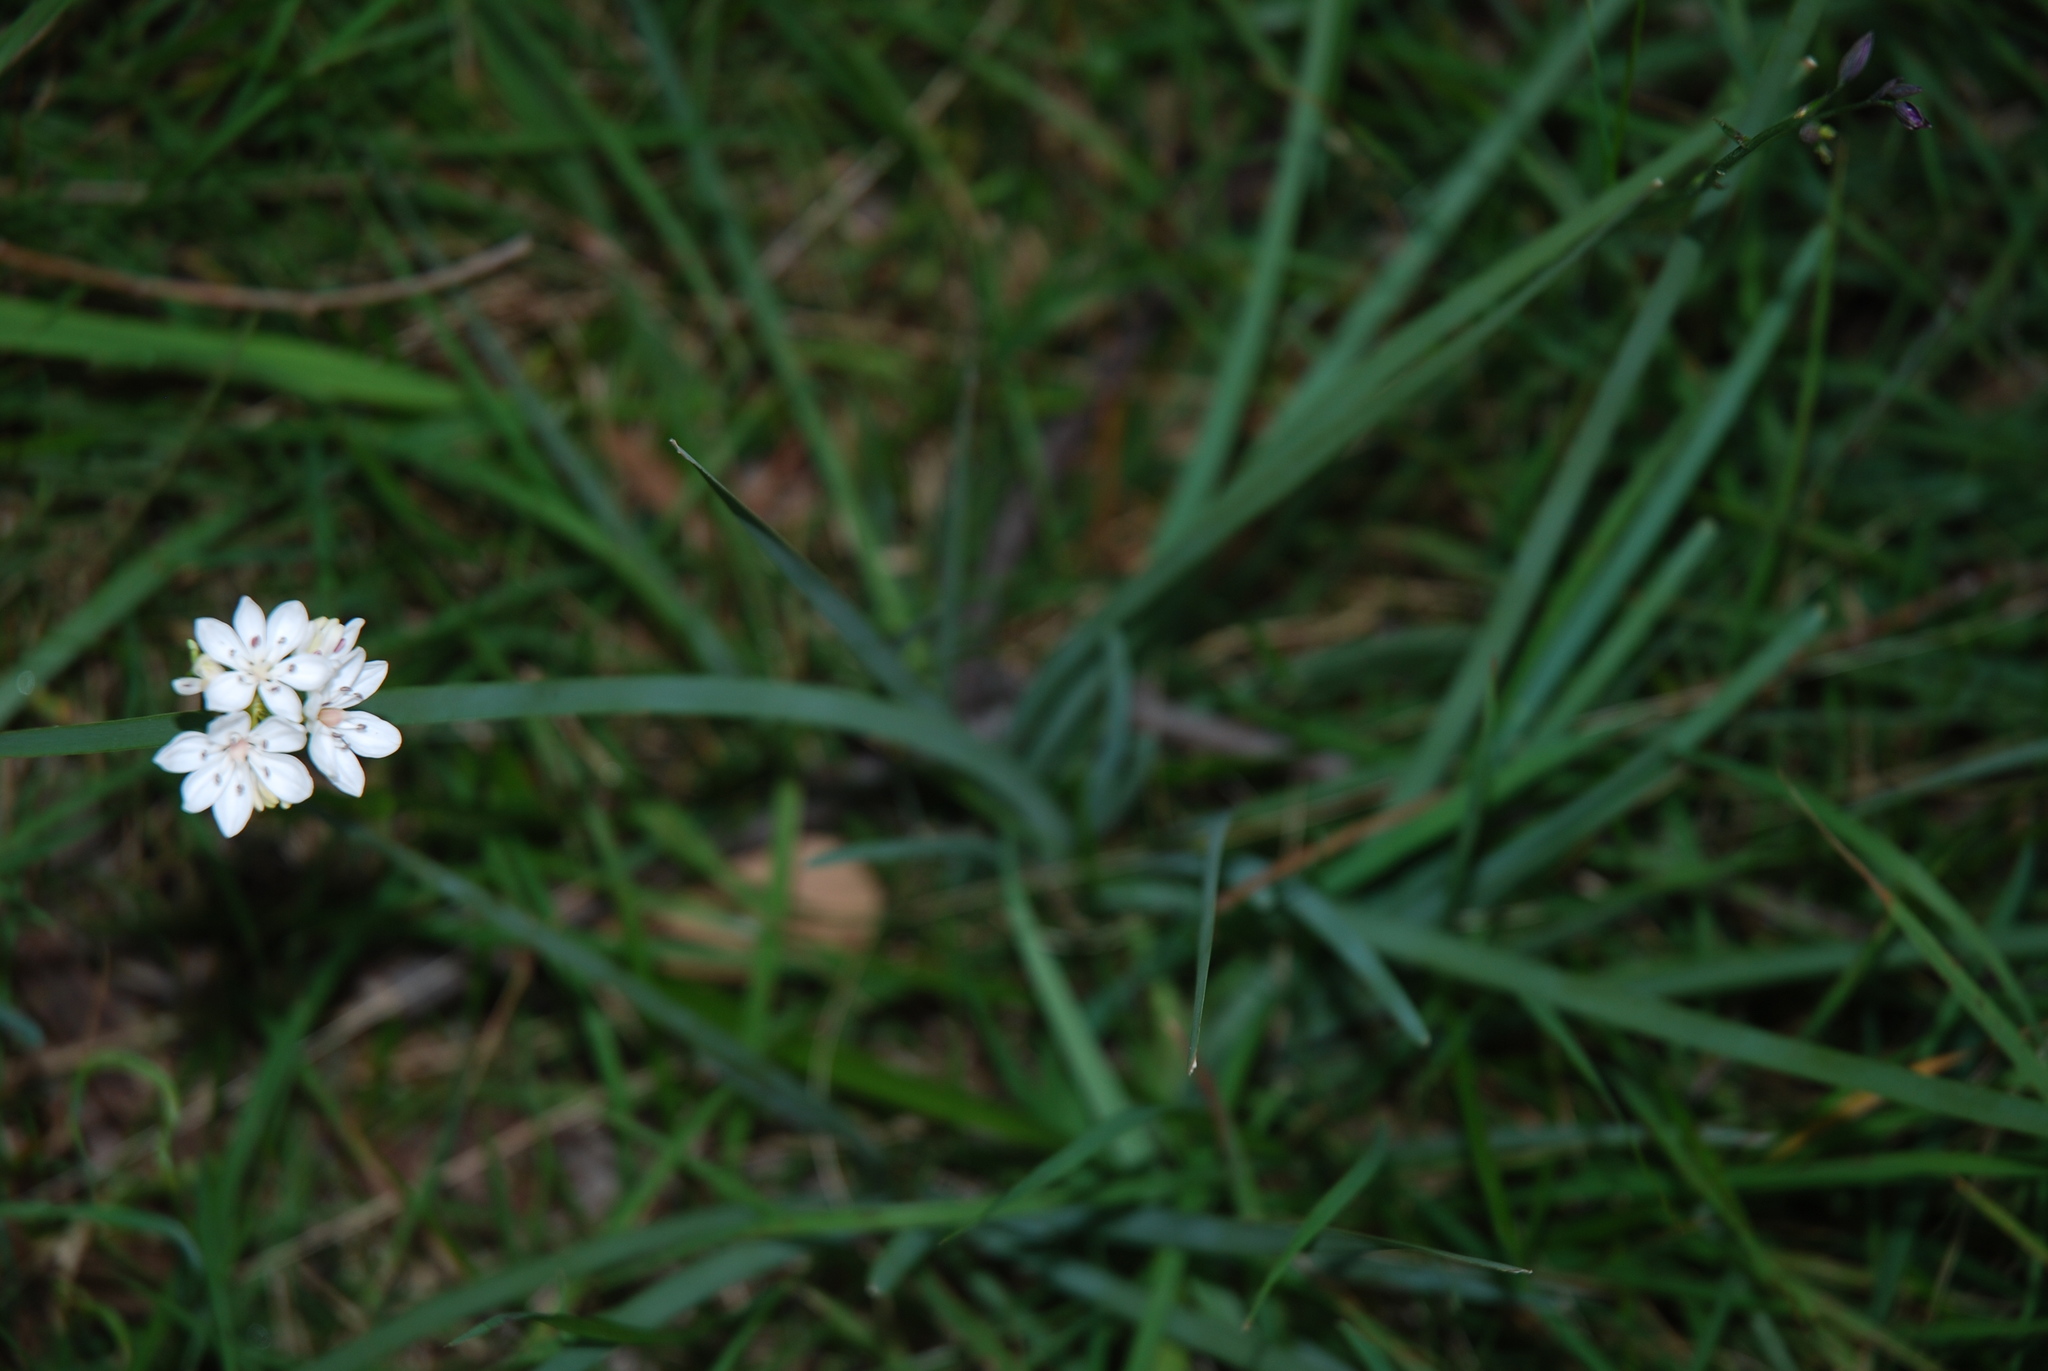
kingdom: Plantae
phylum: Tracheophyta
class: Liliopsida
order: Liliales
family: Colchicaceae
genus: Burchardia
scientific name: Burchardia umbellata
